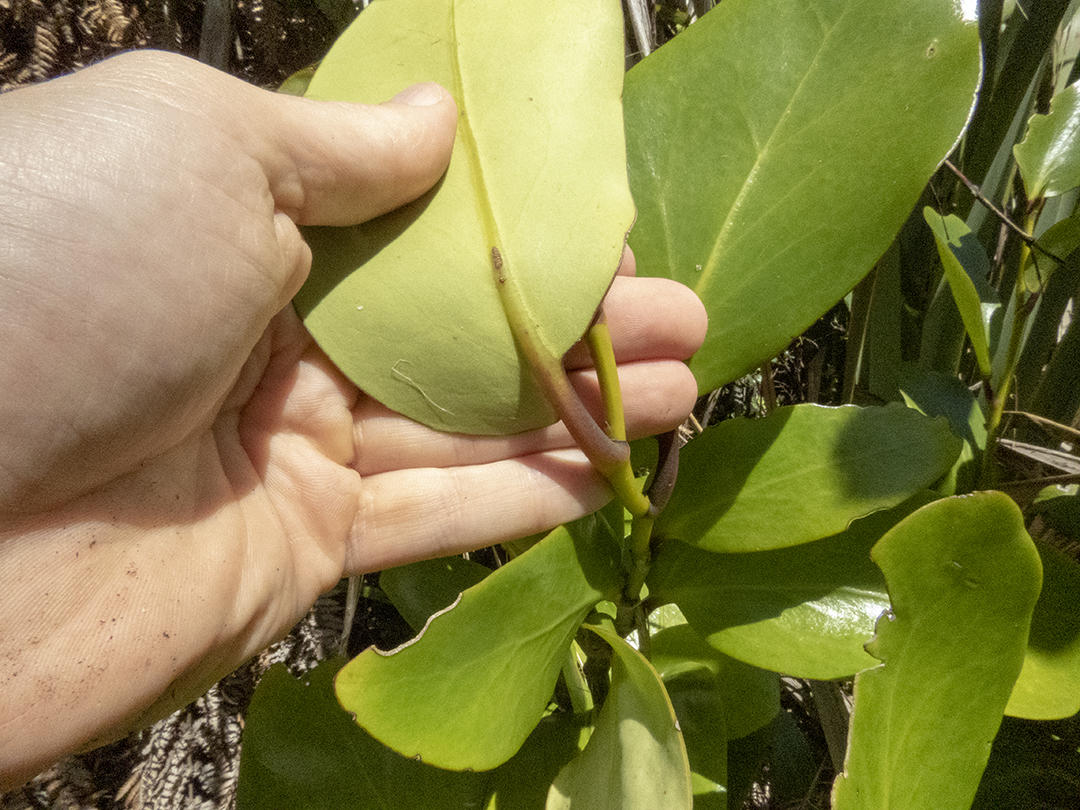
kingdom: Plantae
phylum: Tracheophyta
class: Magnoliopsida
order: Apiales
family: Griseliniaceae
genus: Griselinia
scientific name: Griselinia lucida
